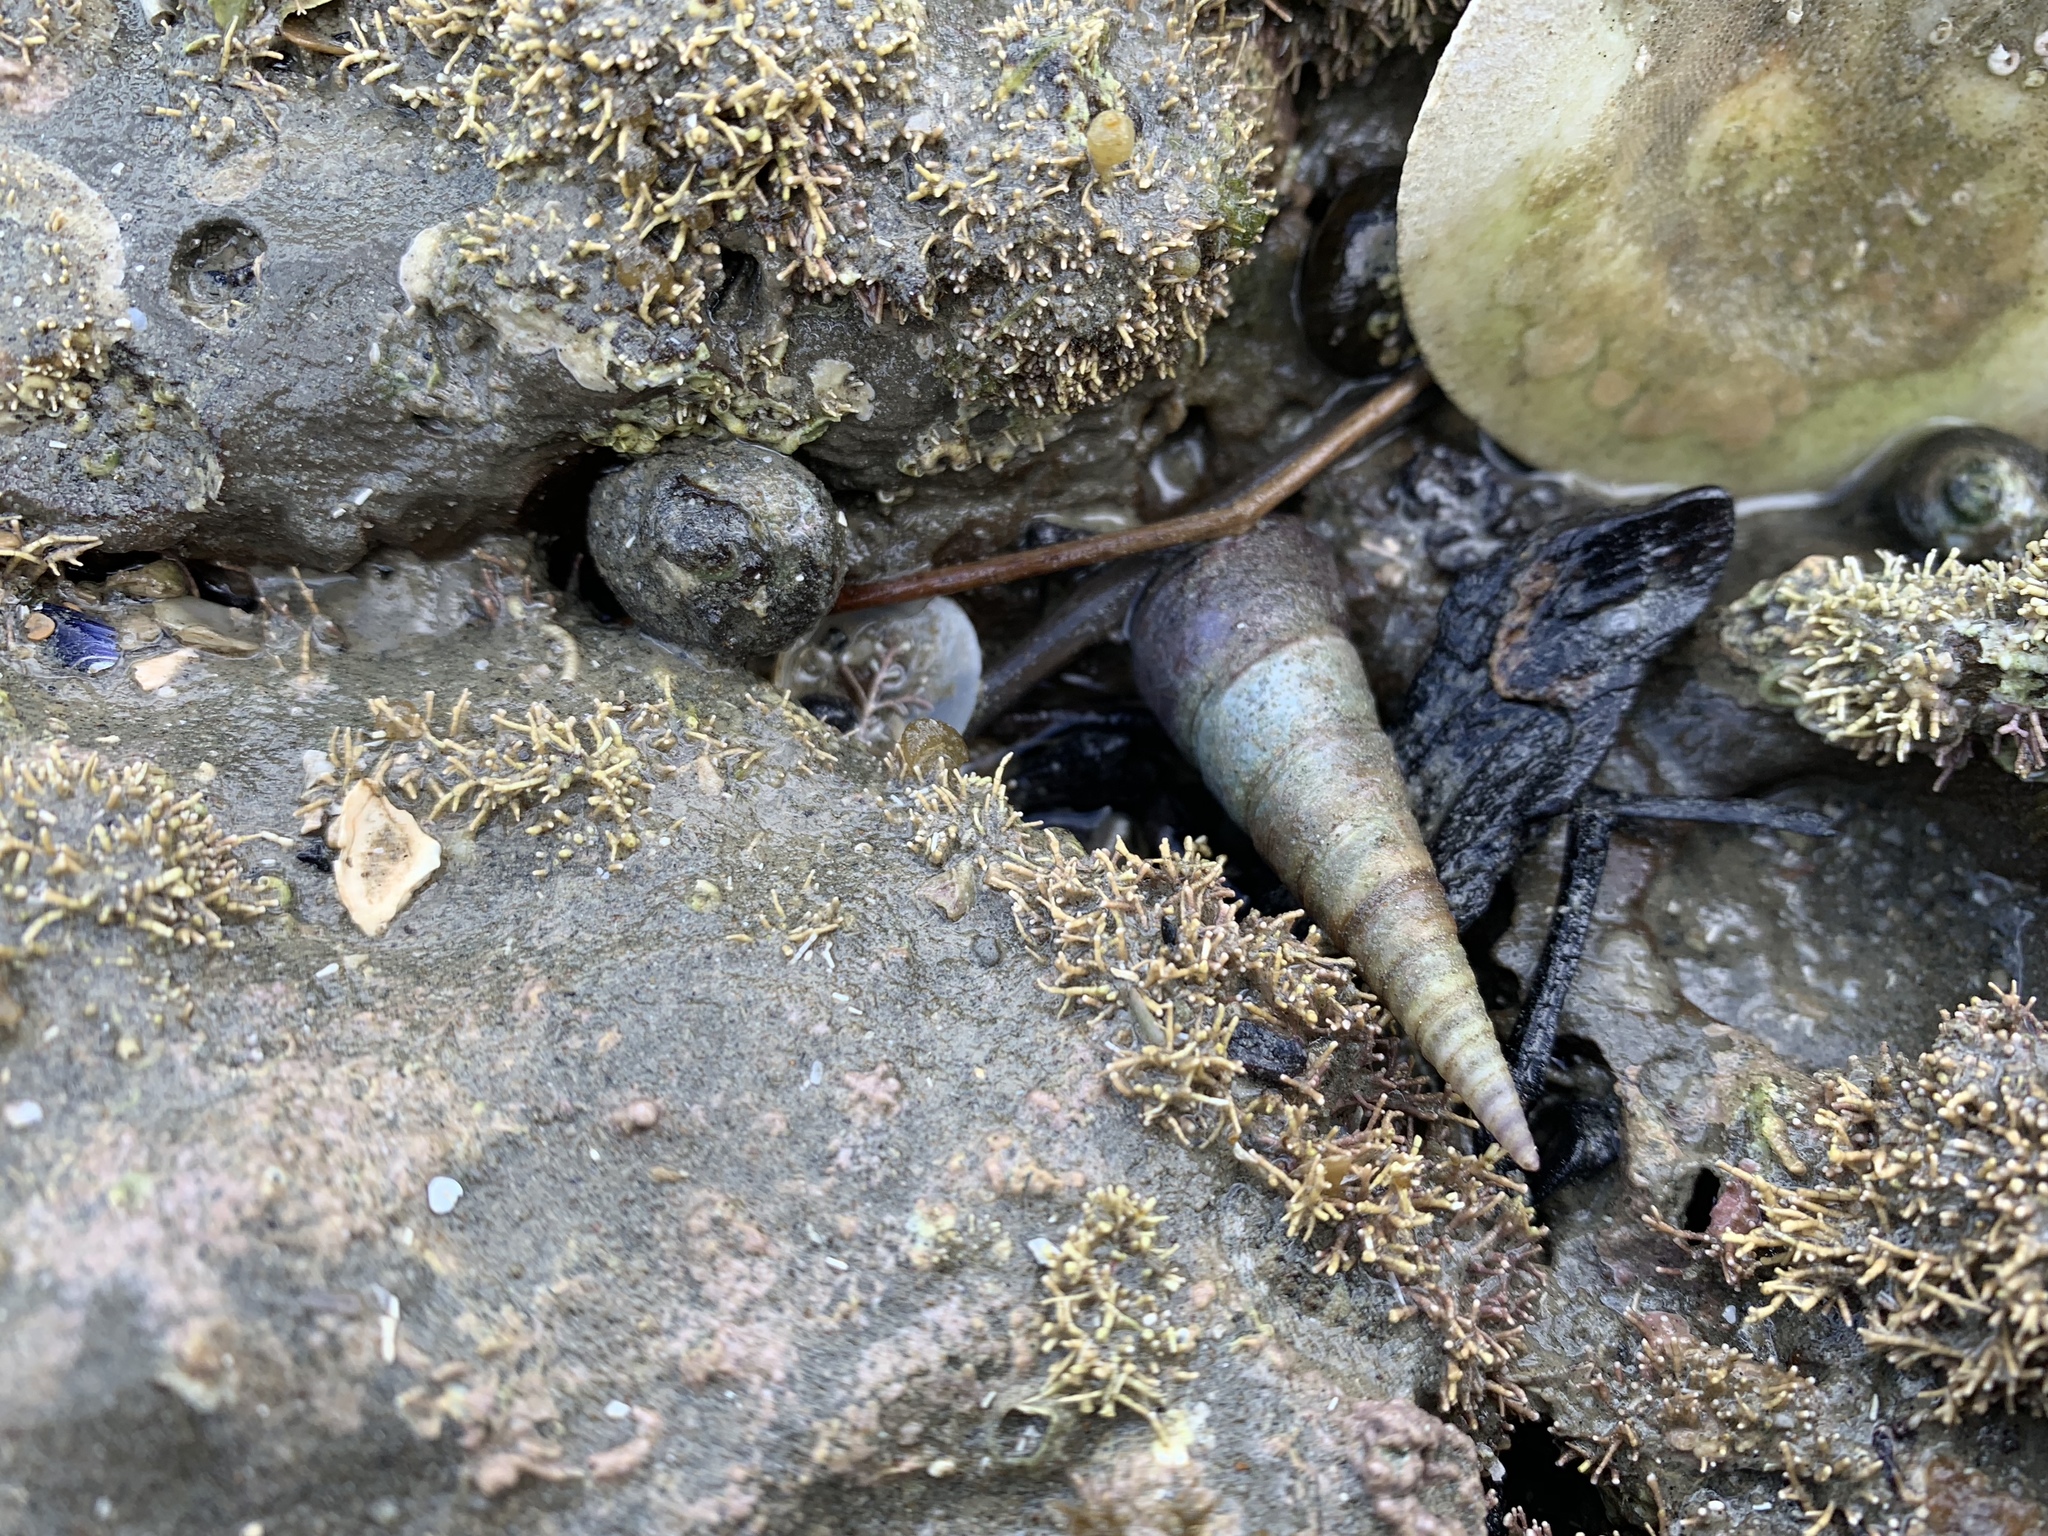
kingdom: Animalia
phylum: Mollusca
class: Gastropoda
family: Turritellidae
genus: Maoricolpus
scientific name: Maoricolpus roseus
